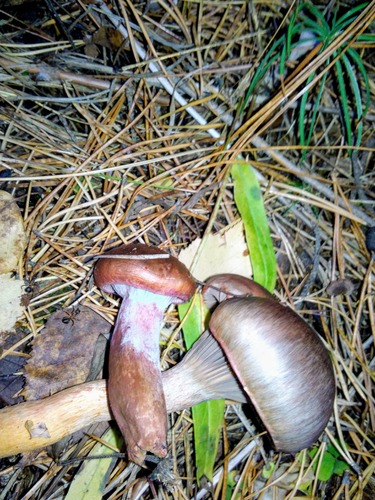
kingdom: Fungi
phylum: Basidiomycota
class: Agaricomycetes
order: Boletales
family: Gomphidiaceae
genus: Chroogomphus
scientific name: Chroogomphus rutilus
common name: Copper spike
